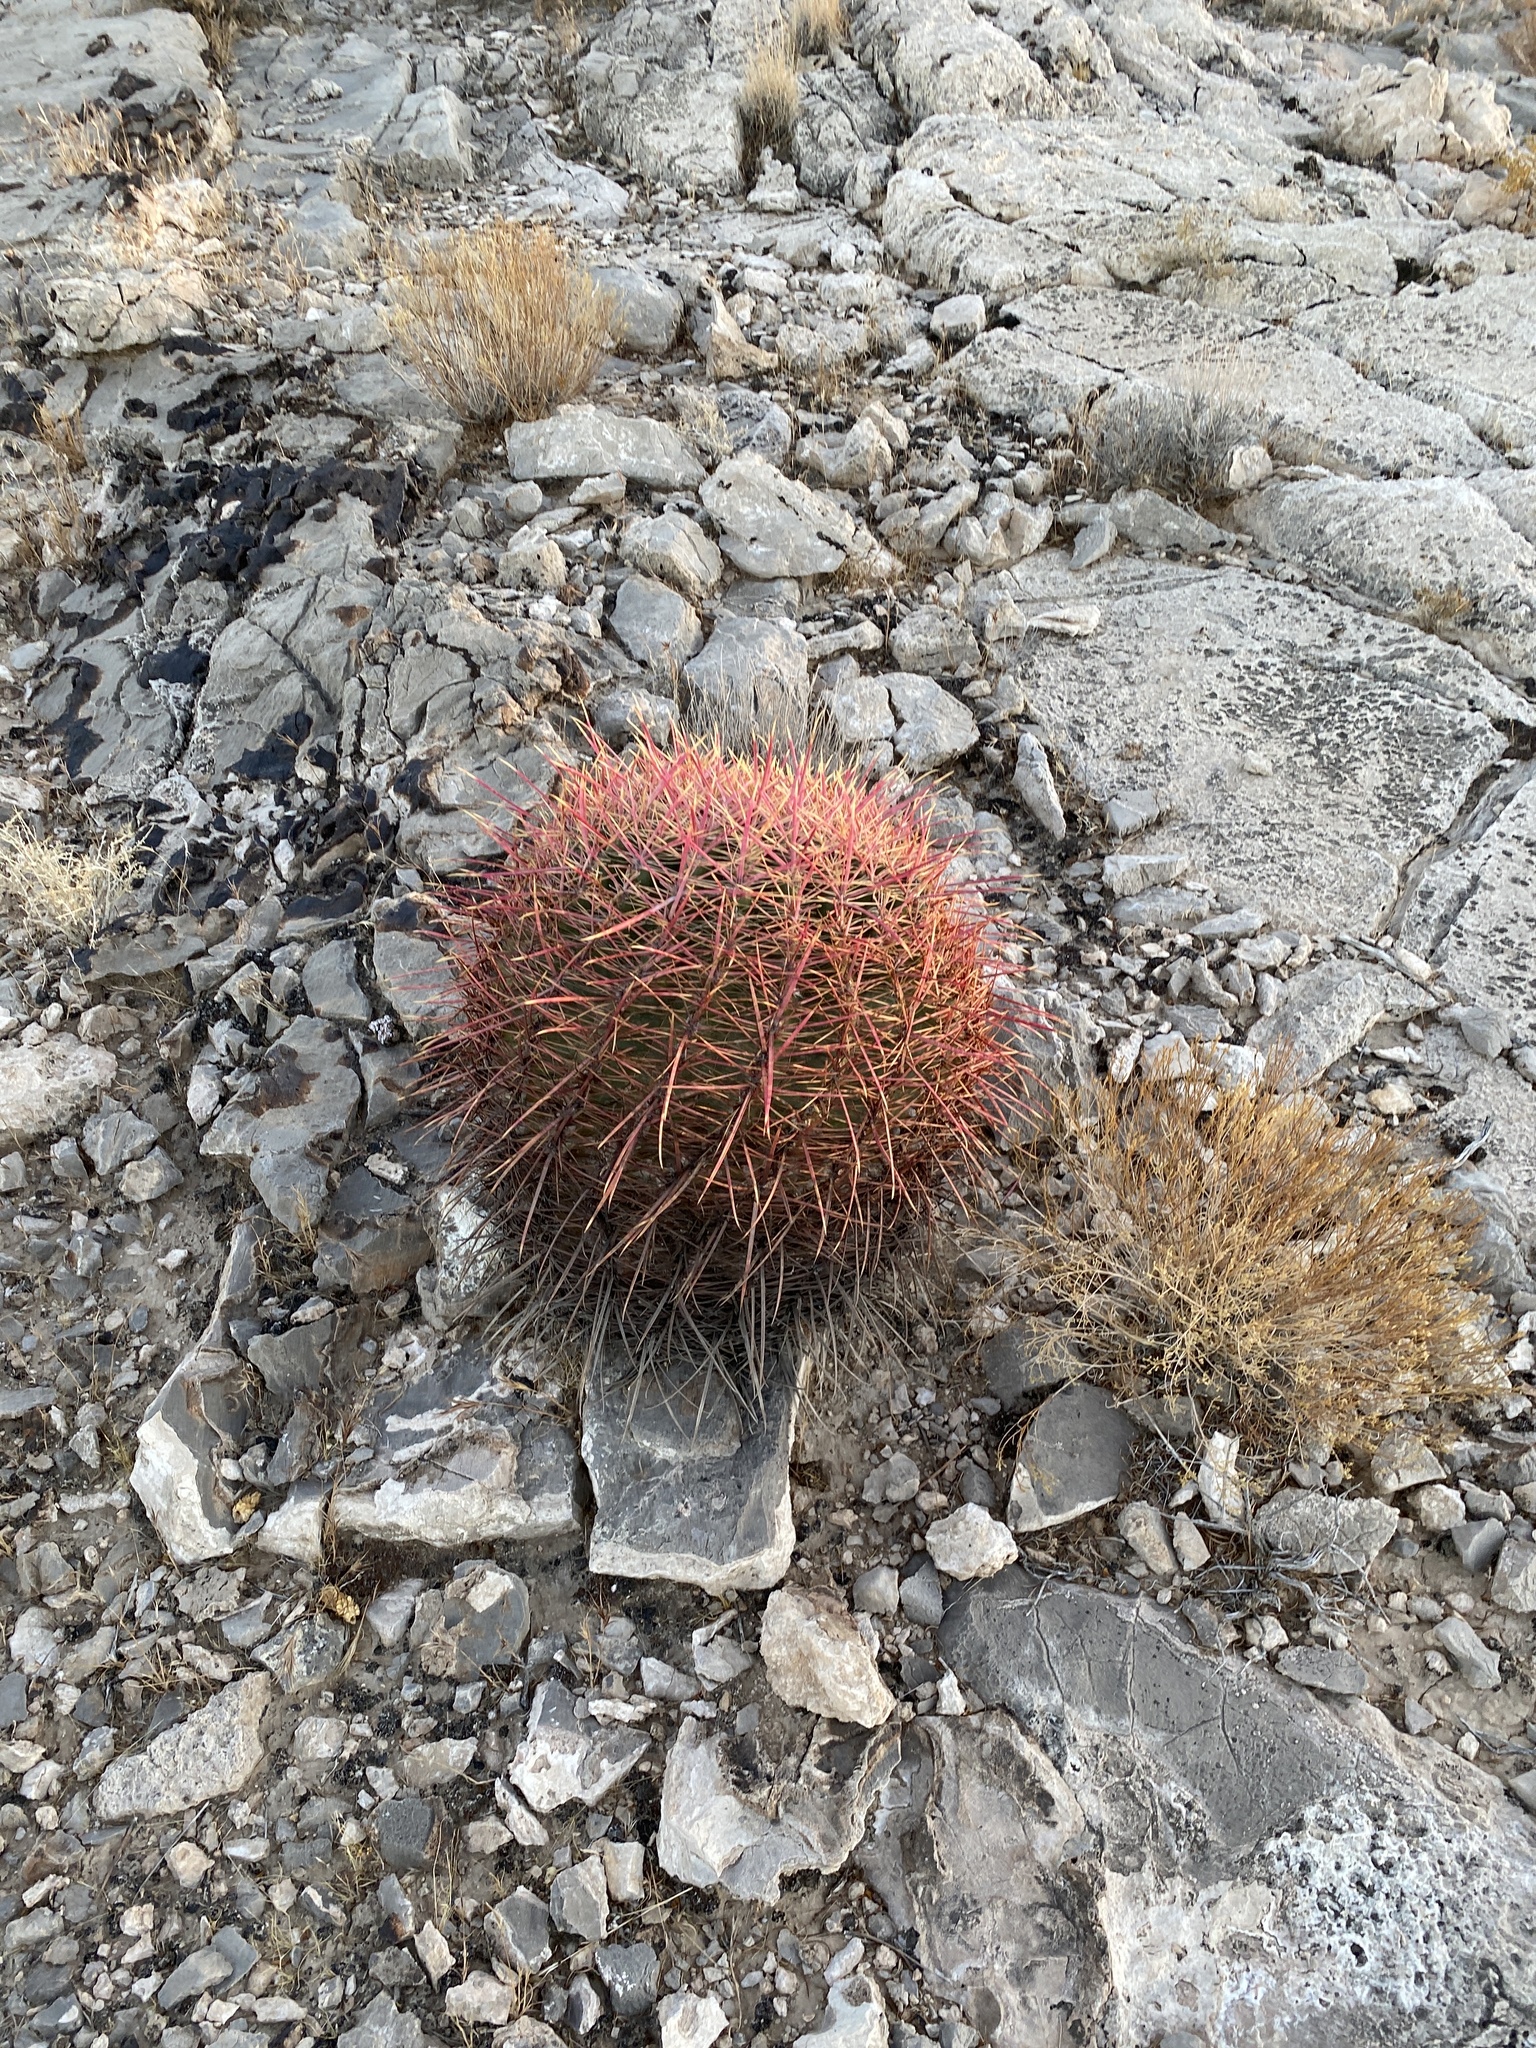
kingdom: Plantae
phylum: Tracheophyta
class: Magnoliopsida
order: Caryophyllales
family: Cactaceae
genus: Ferocactus
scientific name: Ferocactus cylindraceus
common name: California barrel cactus
